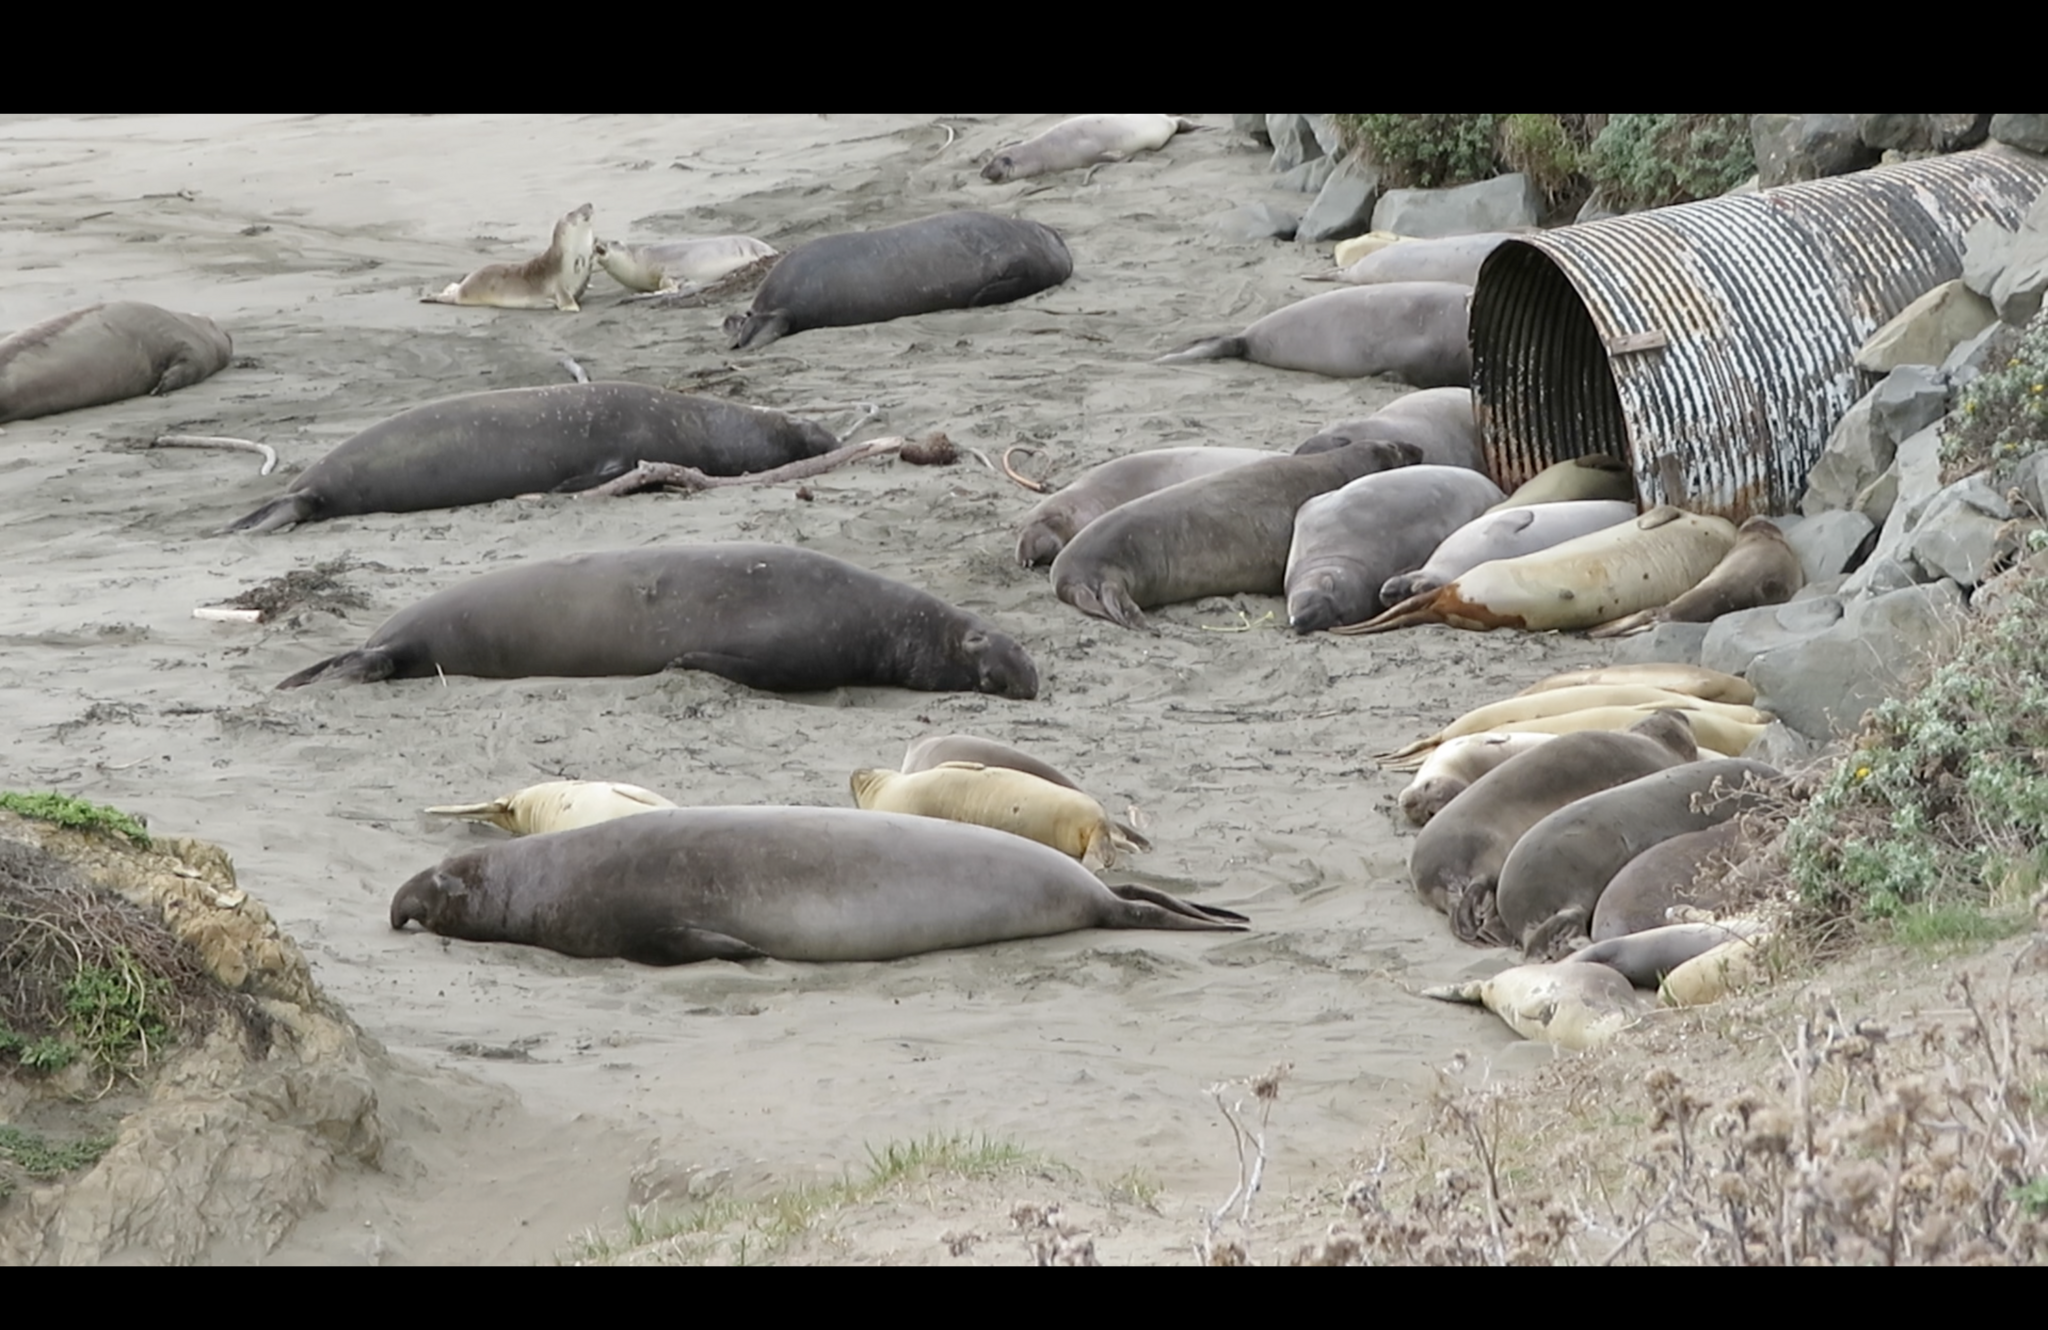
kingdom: Animalia
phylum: Chordata
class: Mammalia
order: Carnivora
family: Phocidae
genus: Mirounga
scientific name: Mirounga angustirostris
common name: Northern elephant seal
